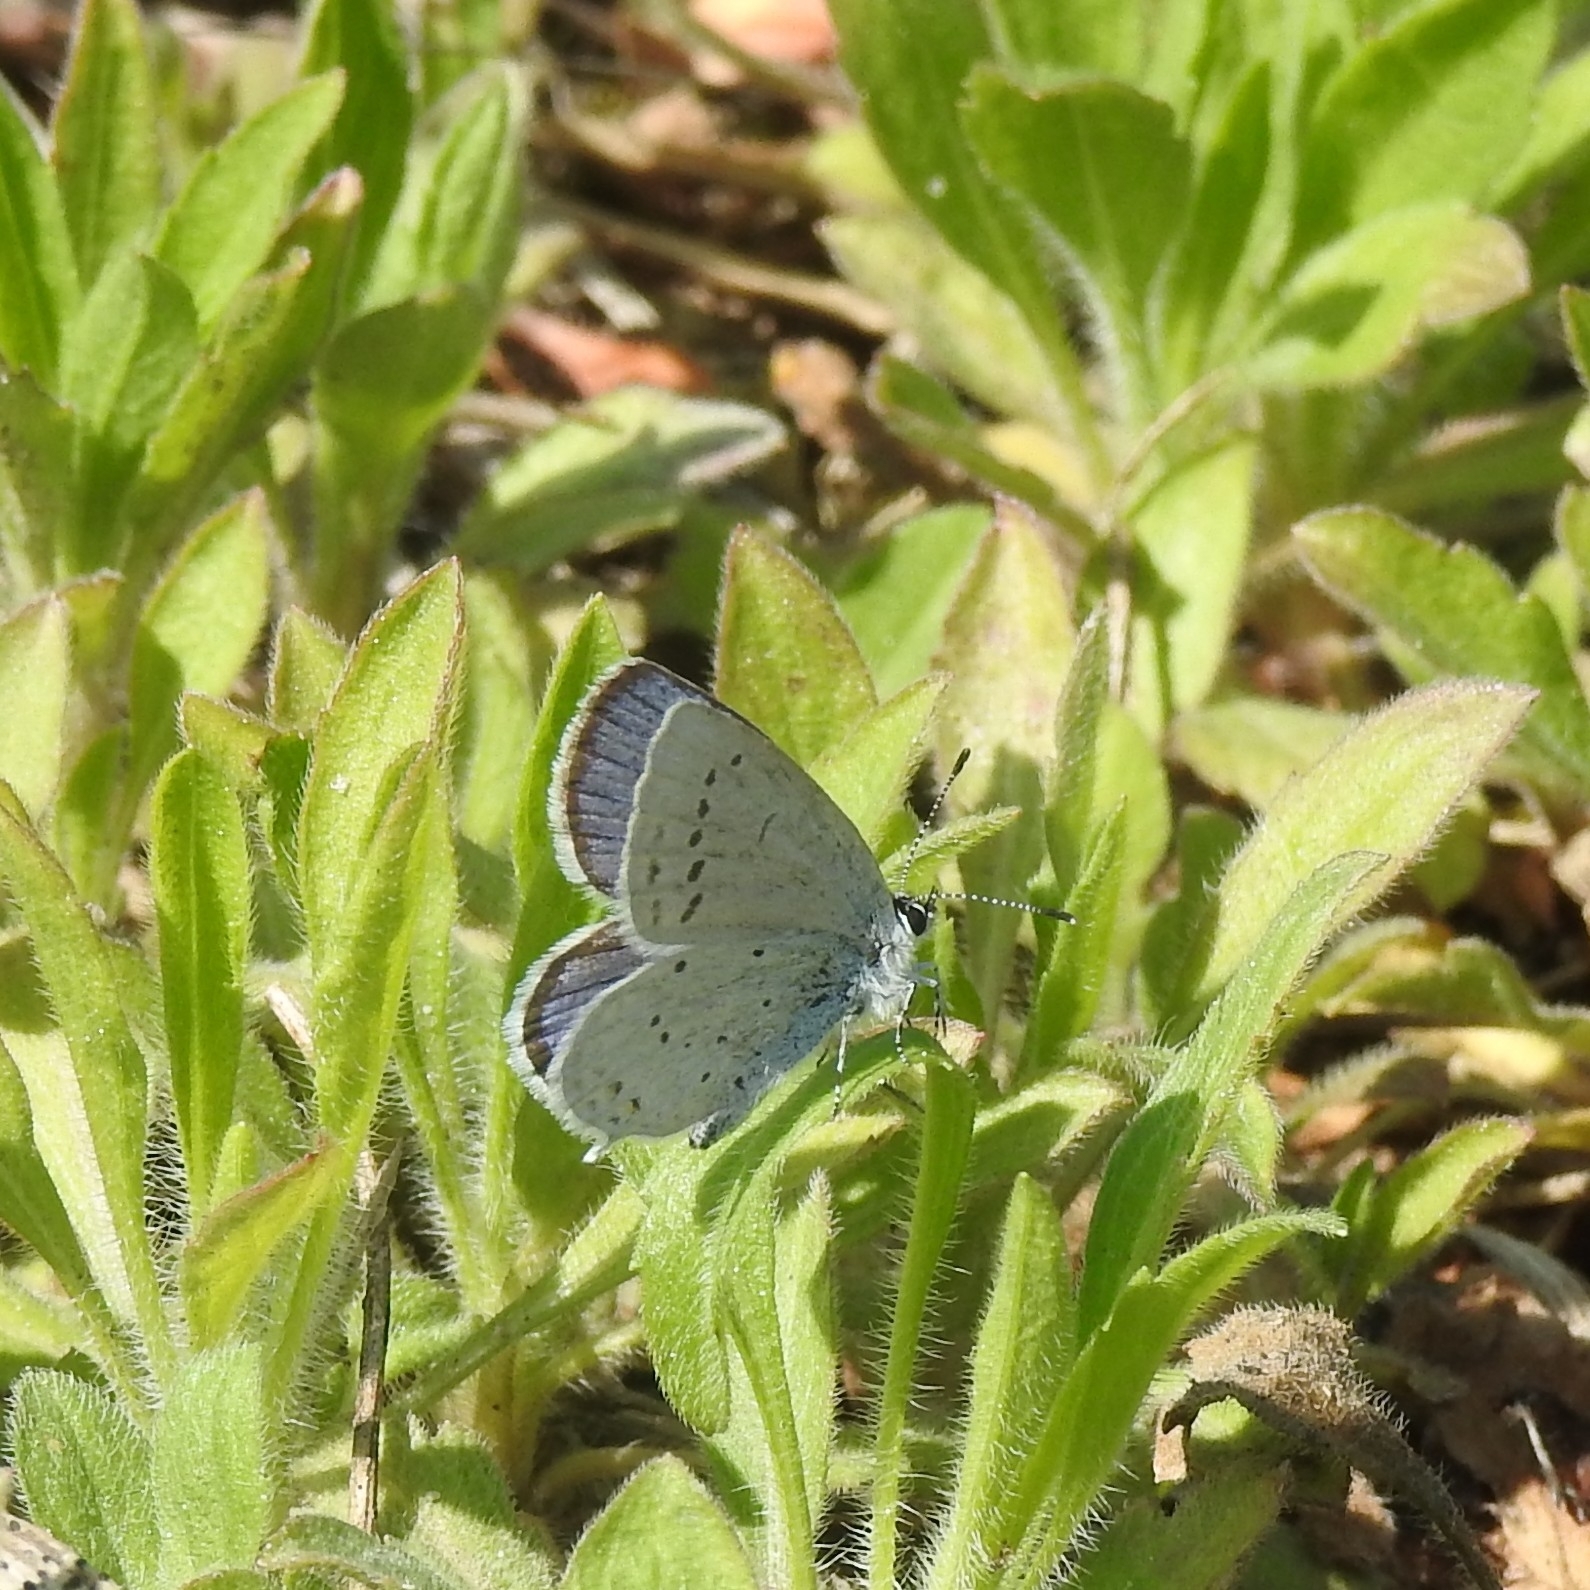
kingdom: Animalia
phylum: Arthropoda
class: Insecta
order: Lepidoptera
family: Lycaenidae
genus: Elkalyce
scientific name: Elkalyce argiades
